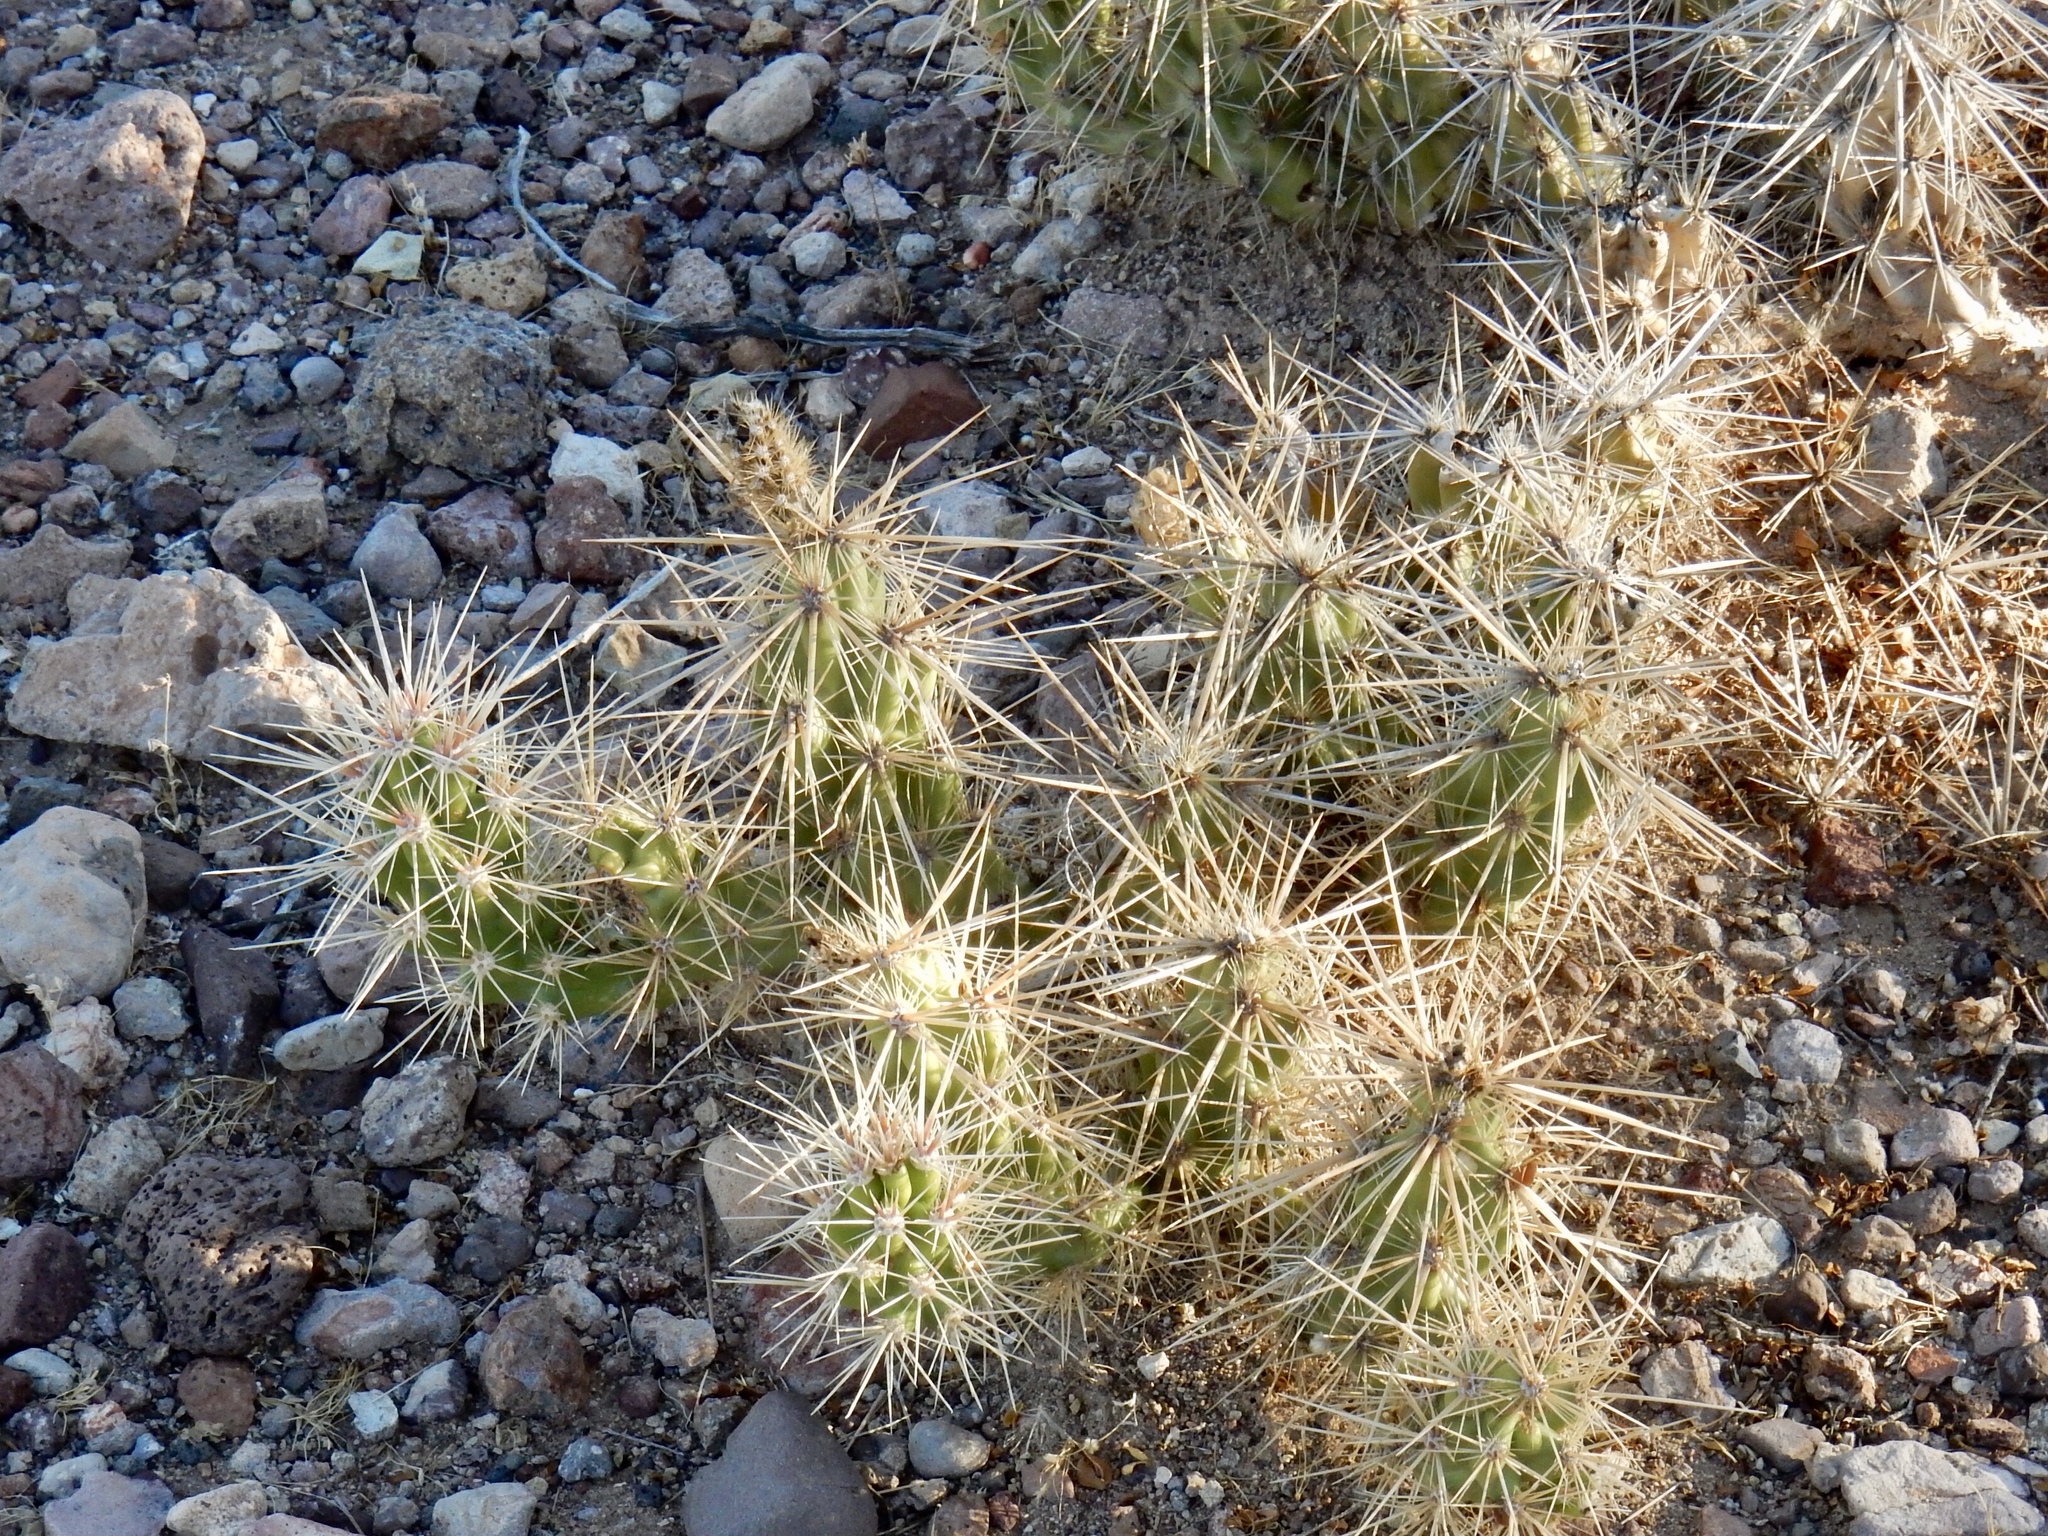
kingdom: Plantae
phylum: Tracheophyta
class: Magnoliopsida
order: Caryophyllales
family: Cactaceae
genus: Grusonia
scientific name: Grusonia emoryi
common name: Stanly's club cholla
